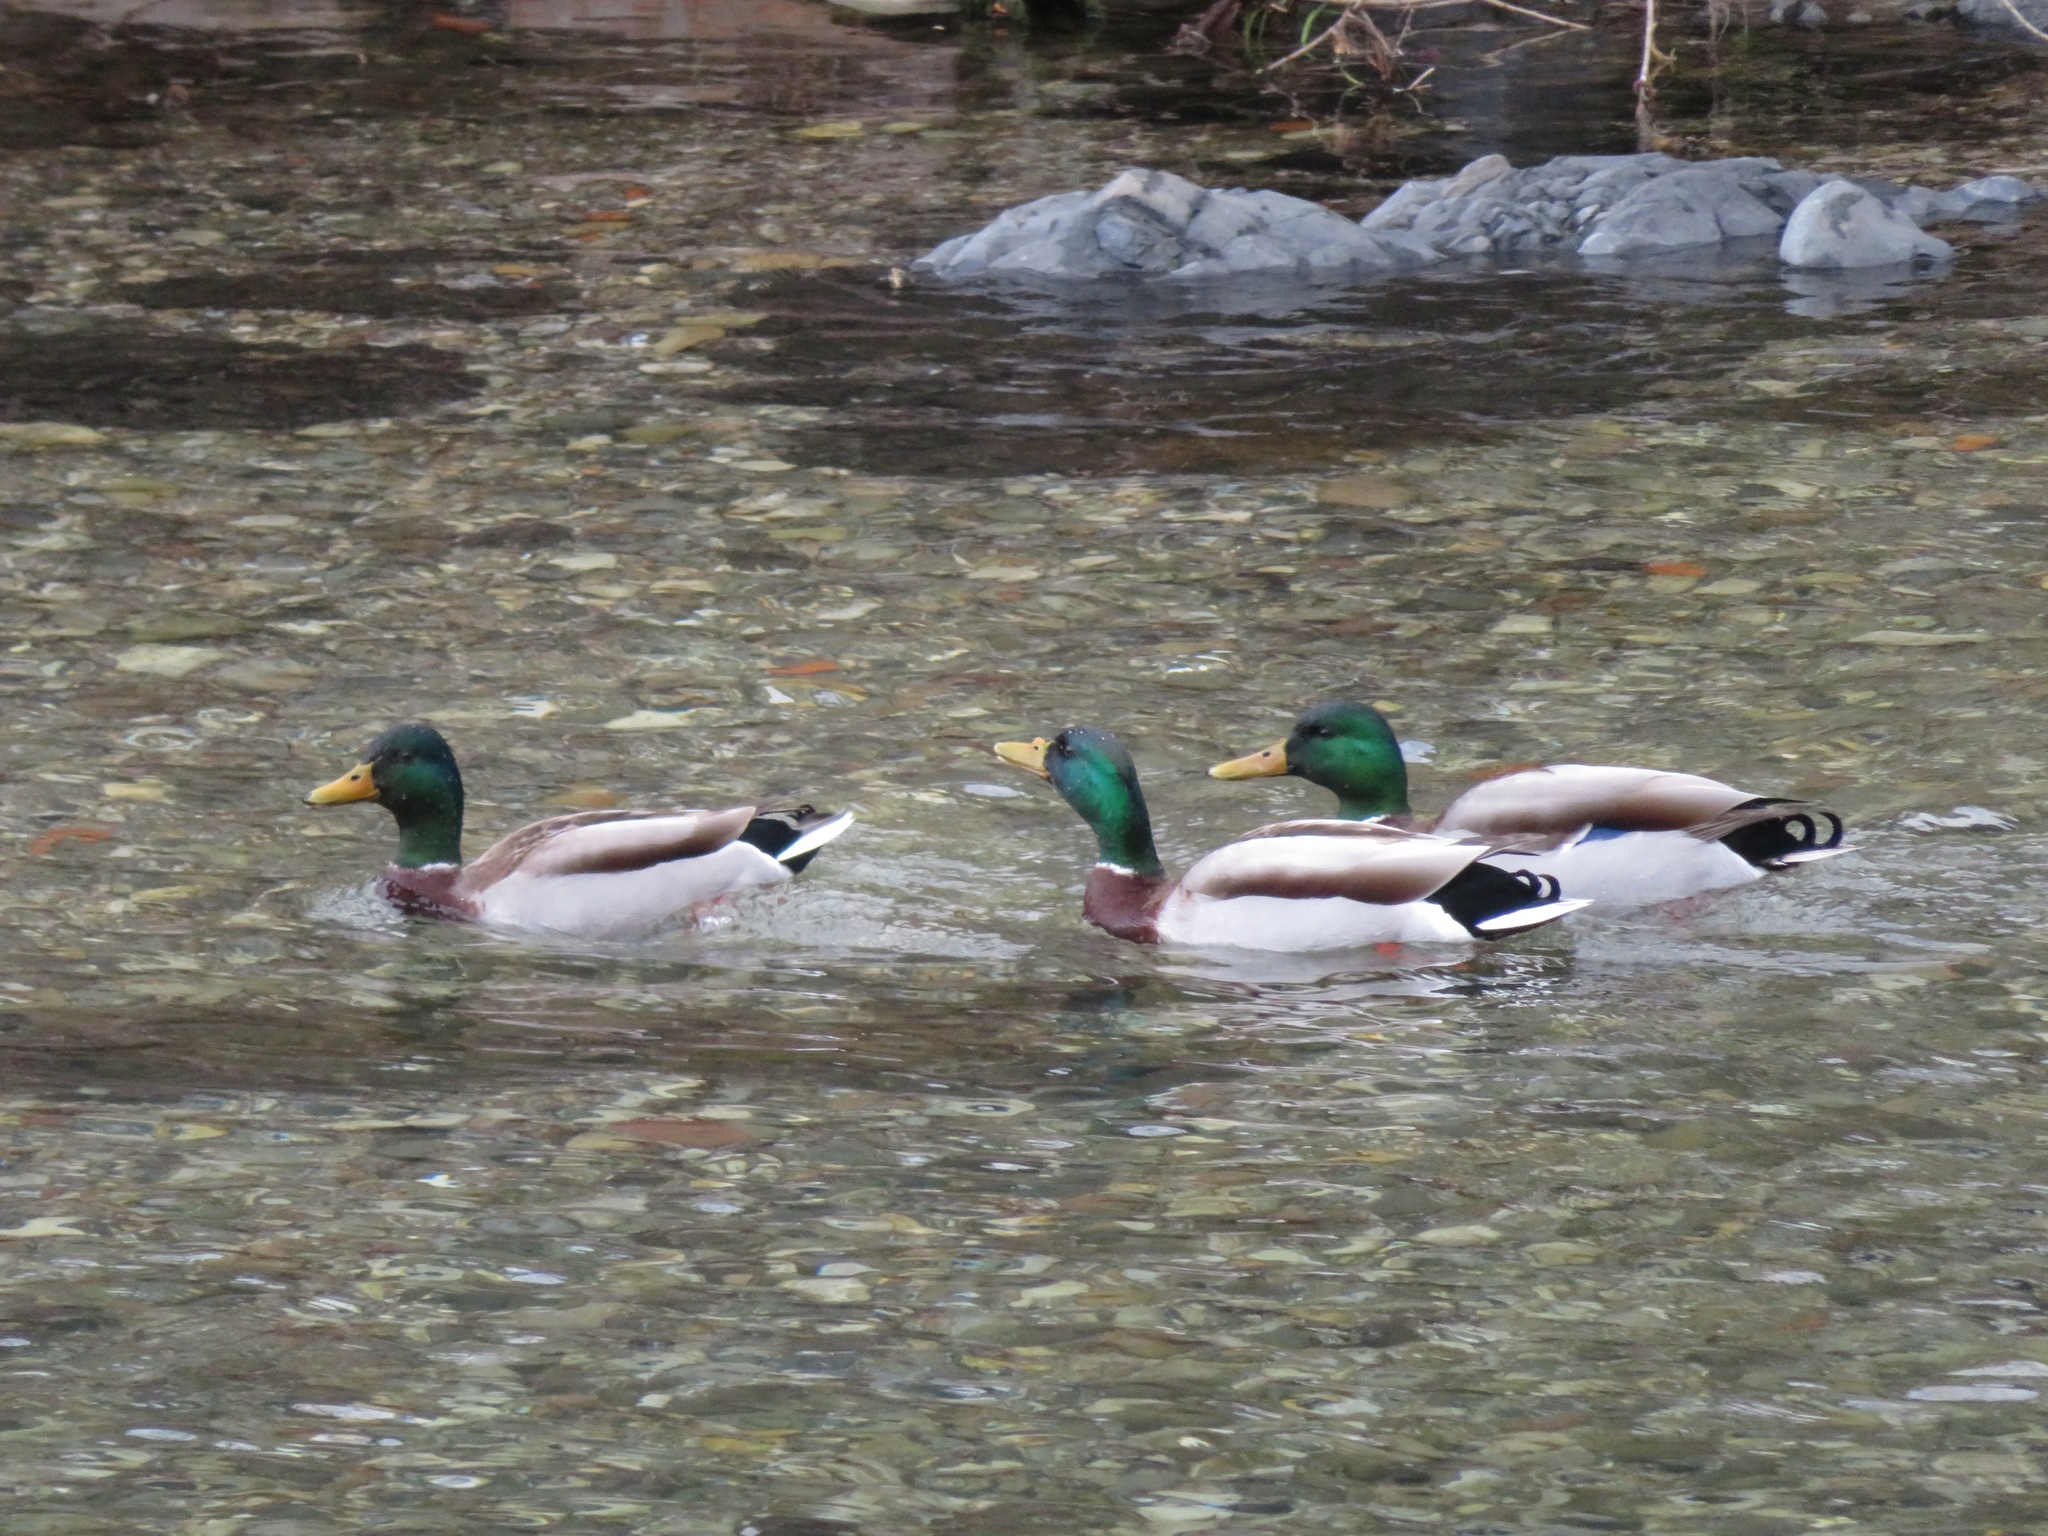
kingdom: Animalia
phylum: Chordata
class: Aves
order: Anseriformes
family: Anatidae
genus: Anas
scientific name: Anas platyrhynchos
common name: Mallard
